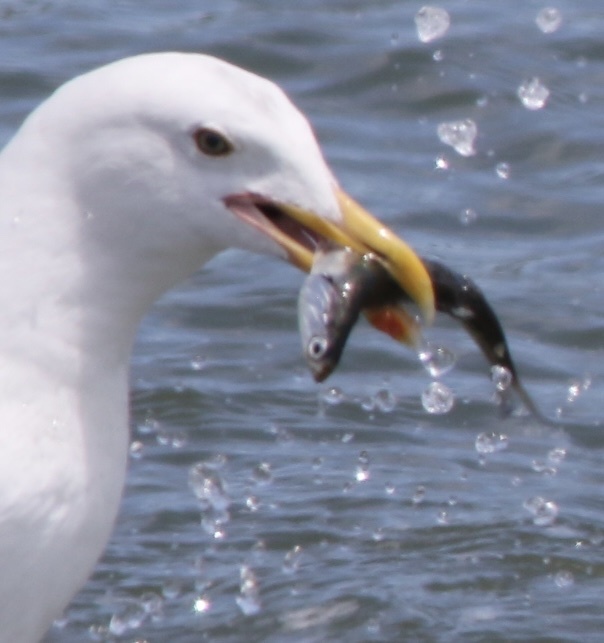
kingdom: Animalia
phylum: Chordata
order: Clupeiformes
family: Engraulidae
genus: Engraulis
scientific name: Engraulis mordax
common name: Northern anchovy
